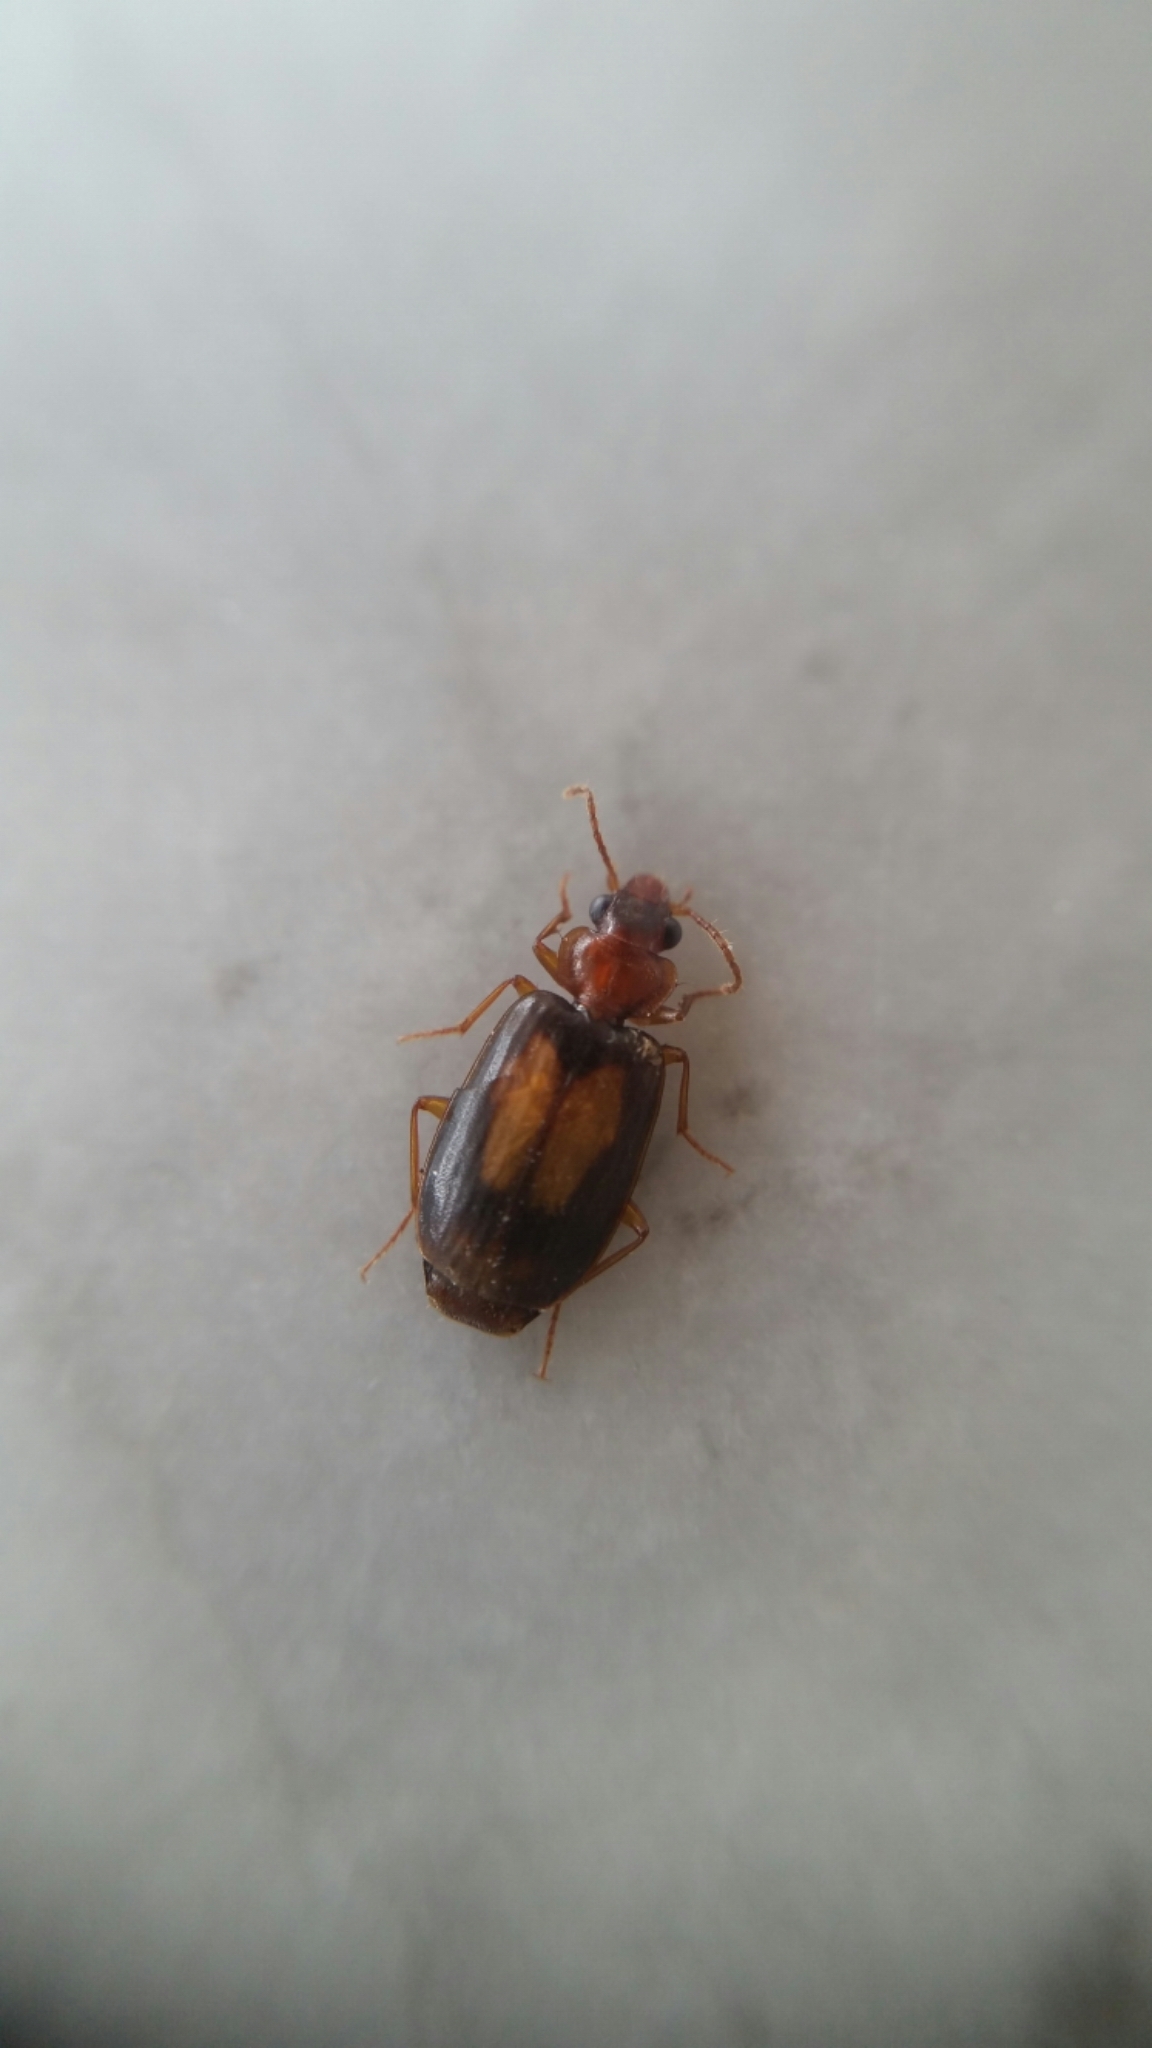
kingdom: Animalia
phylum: Arthropoda
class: Insecta
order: Coleoptera
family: Carabidae
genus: Agonocheila
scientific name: Agonocheila antipodum
